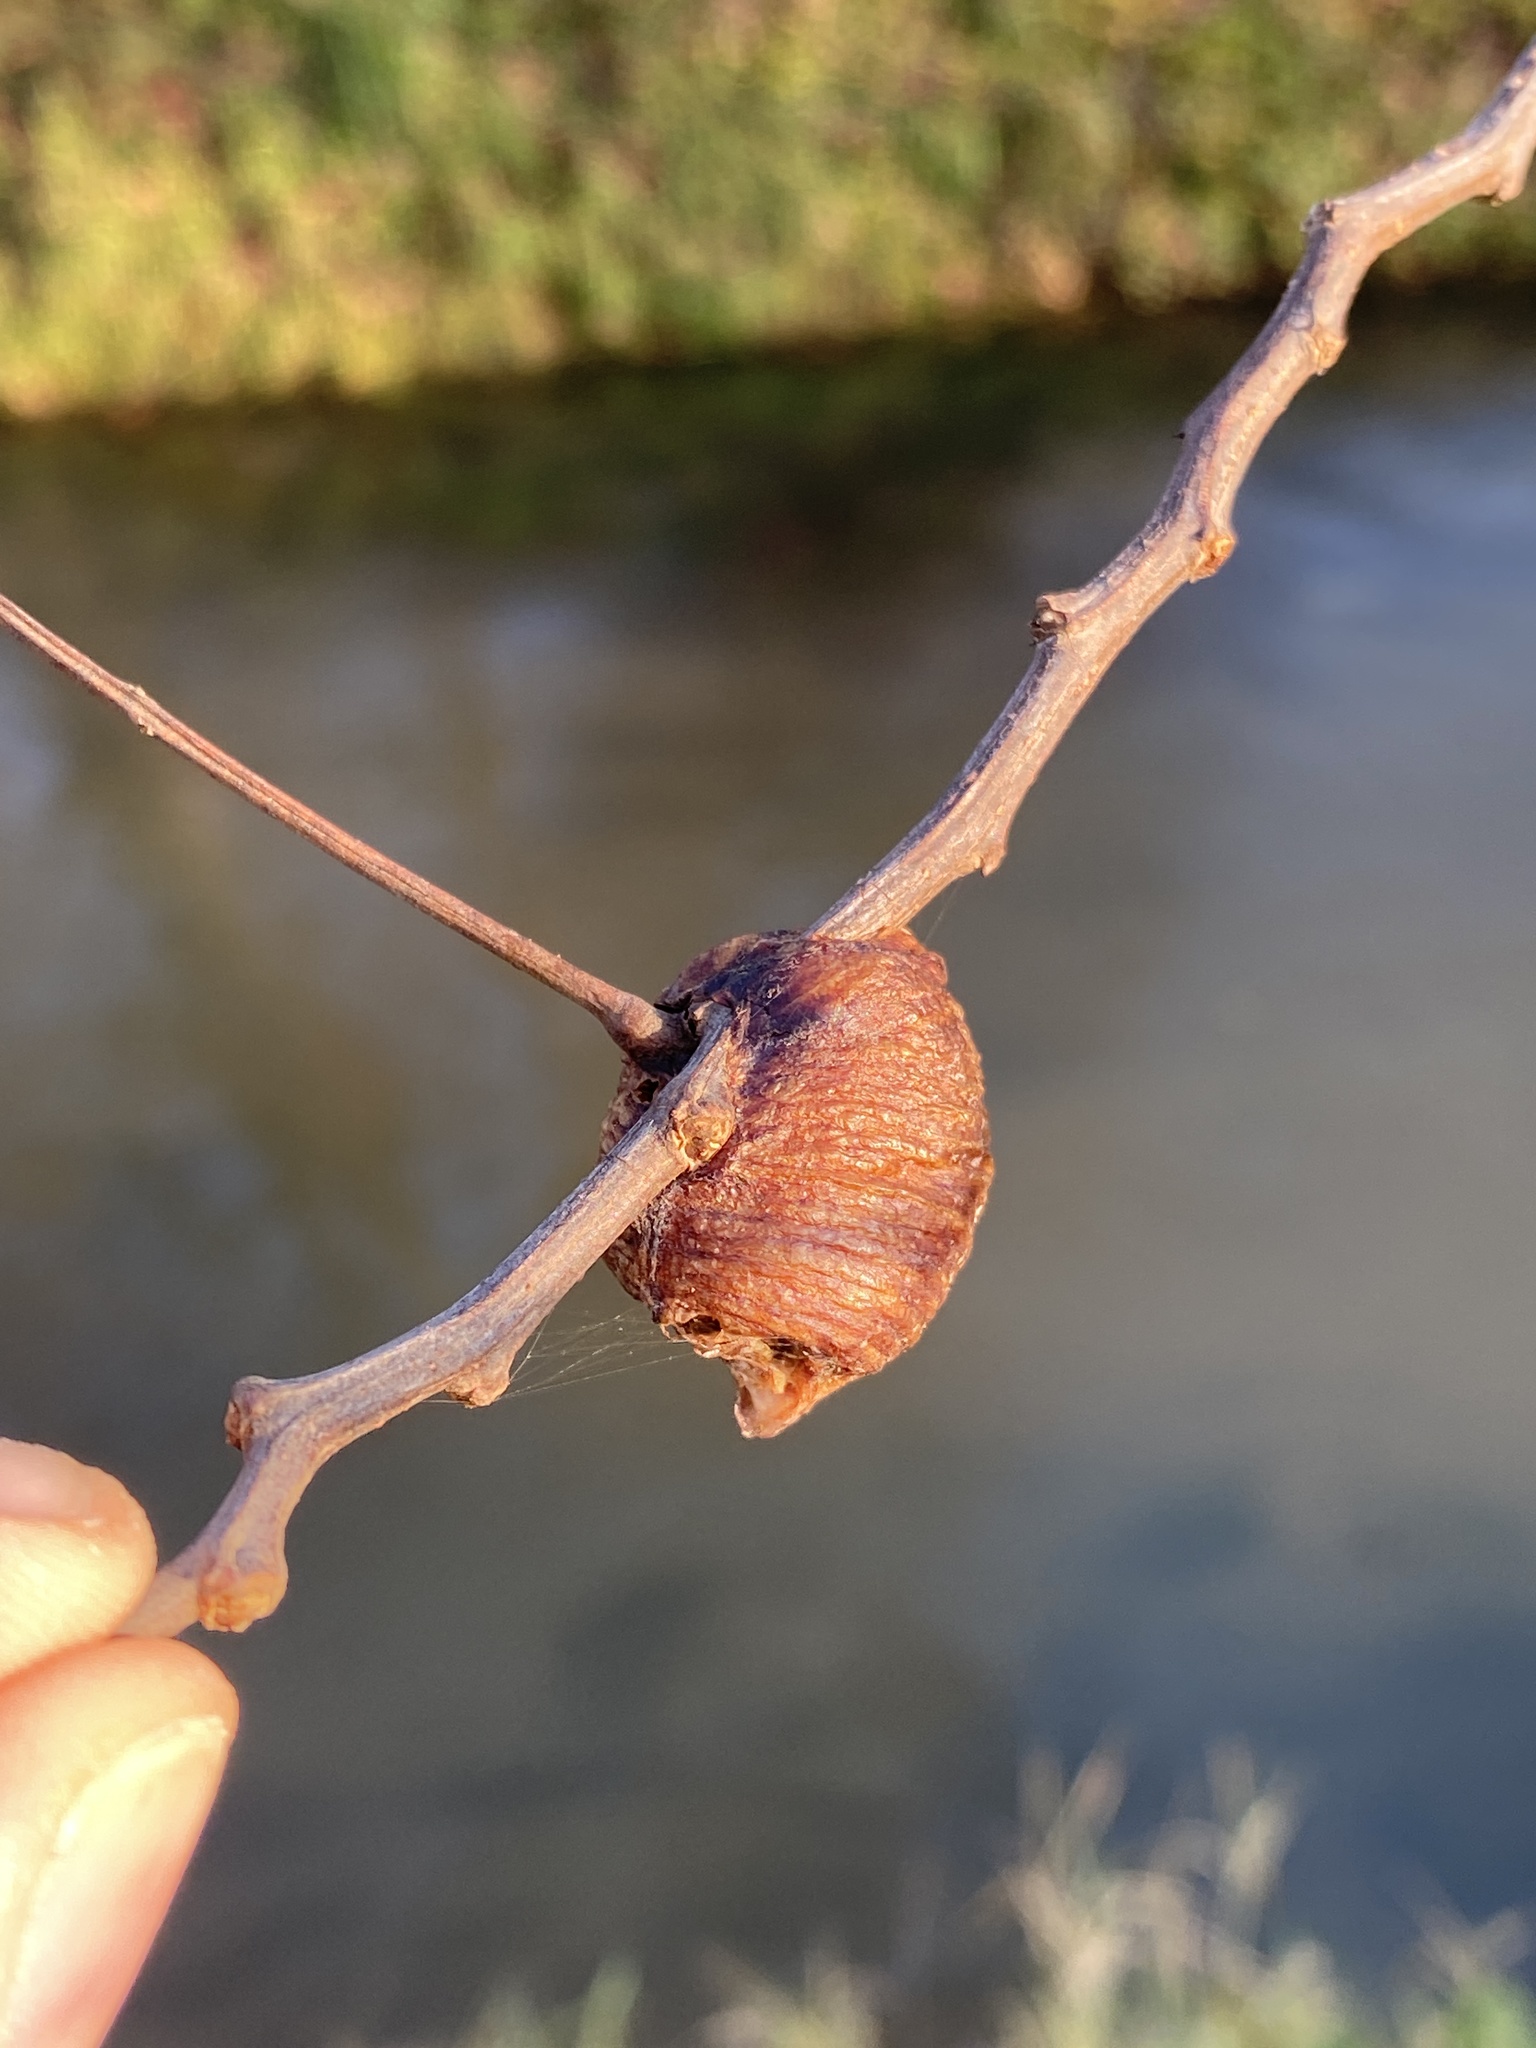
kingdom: Animalia
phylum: Arthropoda
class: Insecta
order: Mantodea
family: Mantidae
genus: Hierodula
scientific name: Hierodula transcaucasica
